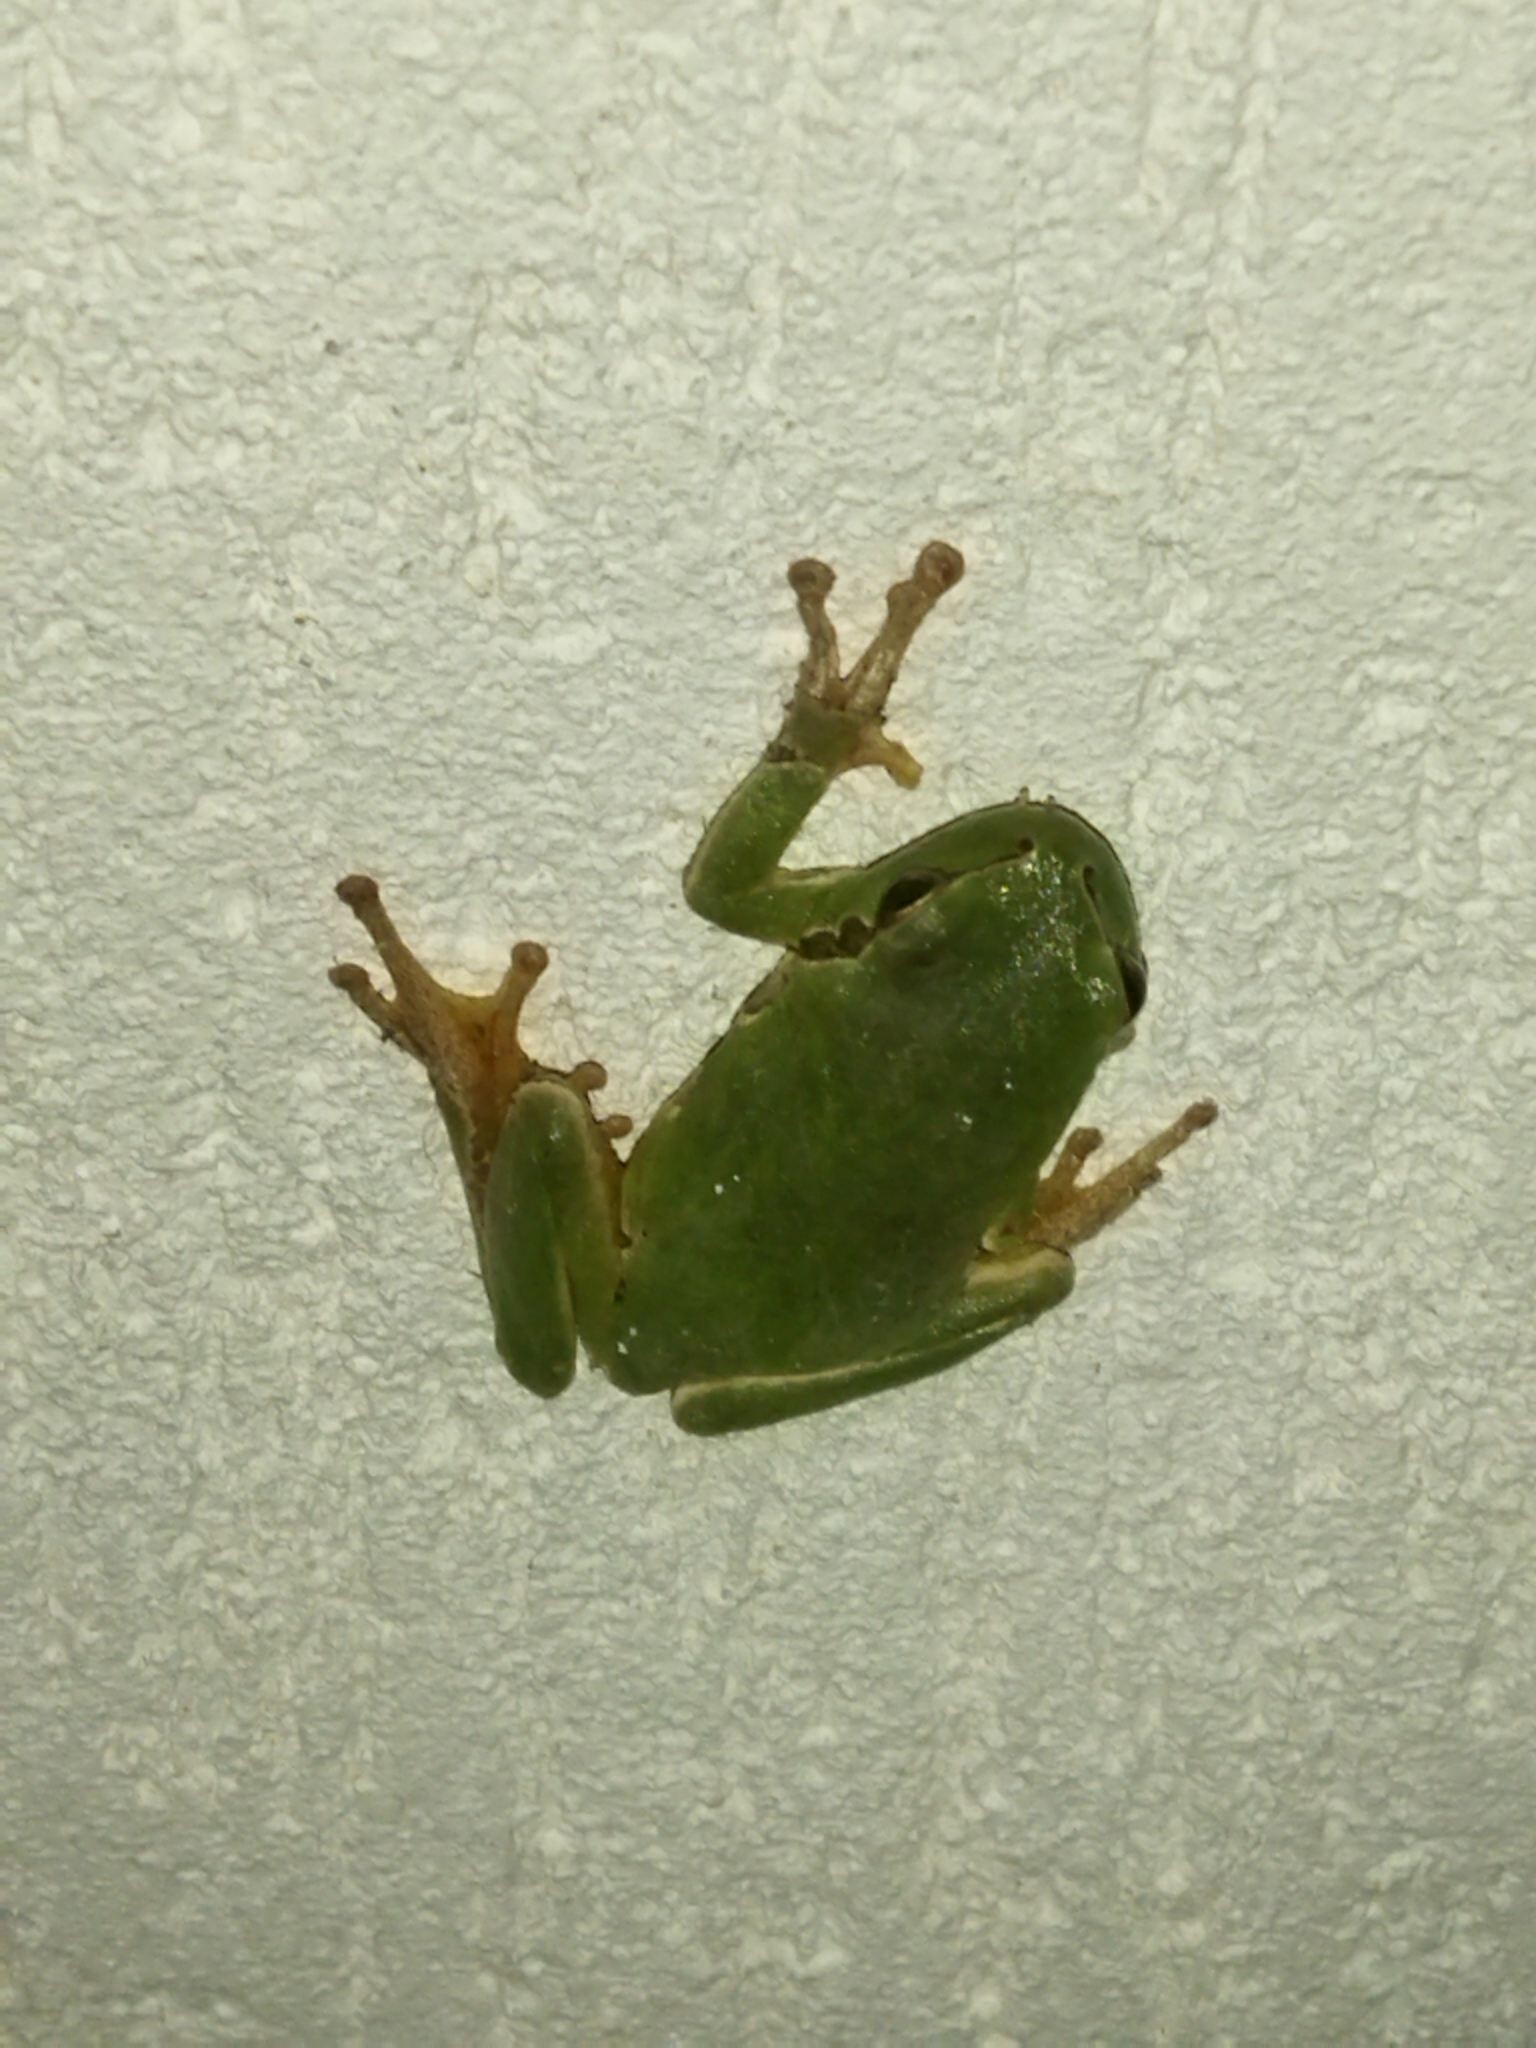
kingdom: Animalia
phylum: Chordata
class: Amphibia
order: Anura
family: Hylidae
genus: Hyla
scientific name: Hyla orientalis
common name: Caucasian treefrog
